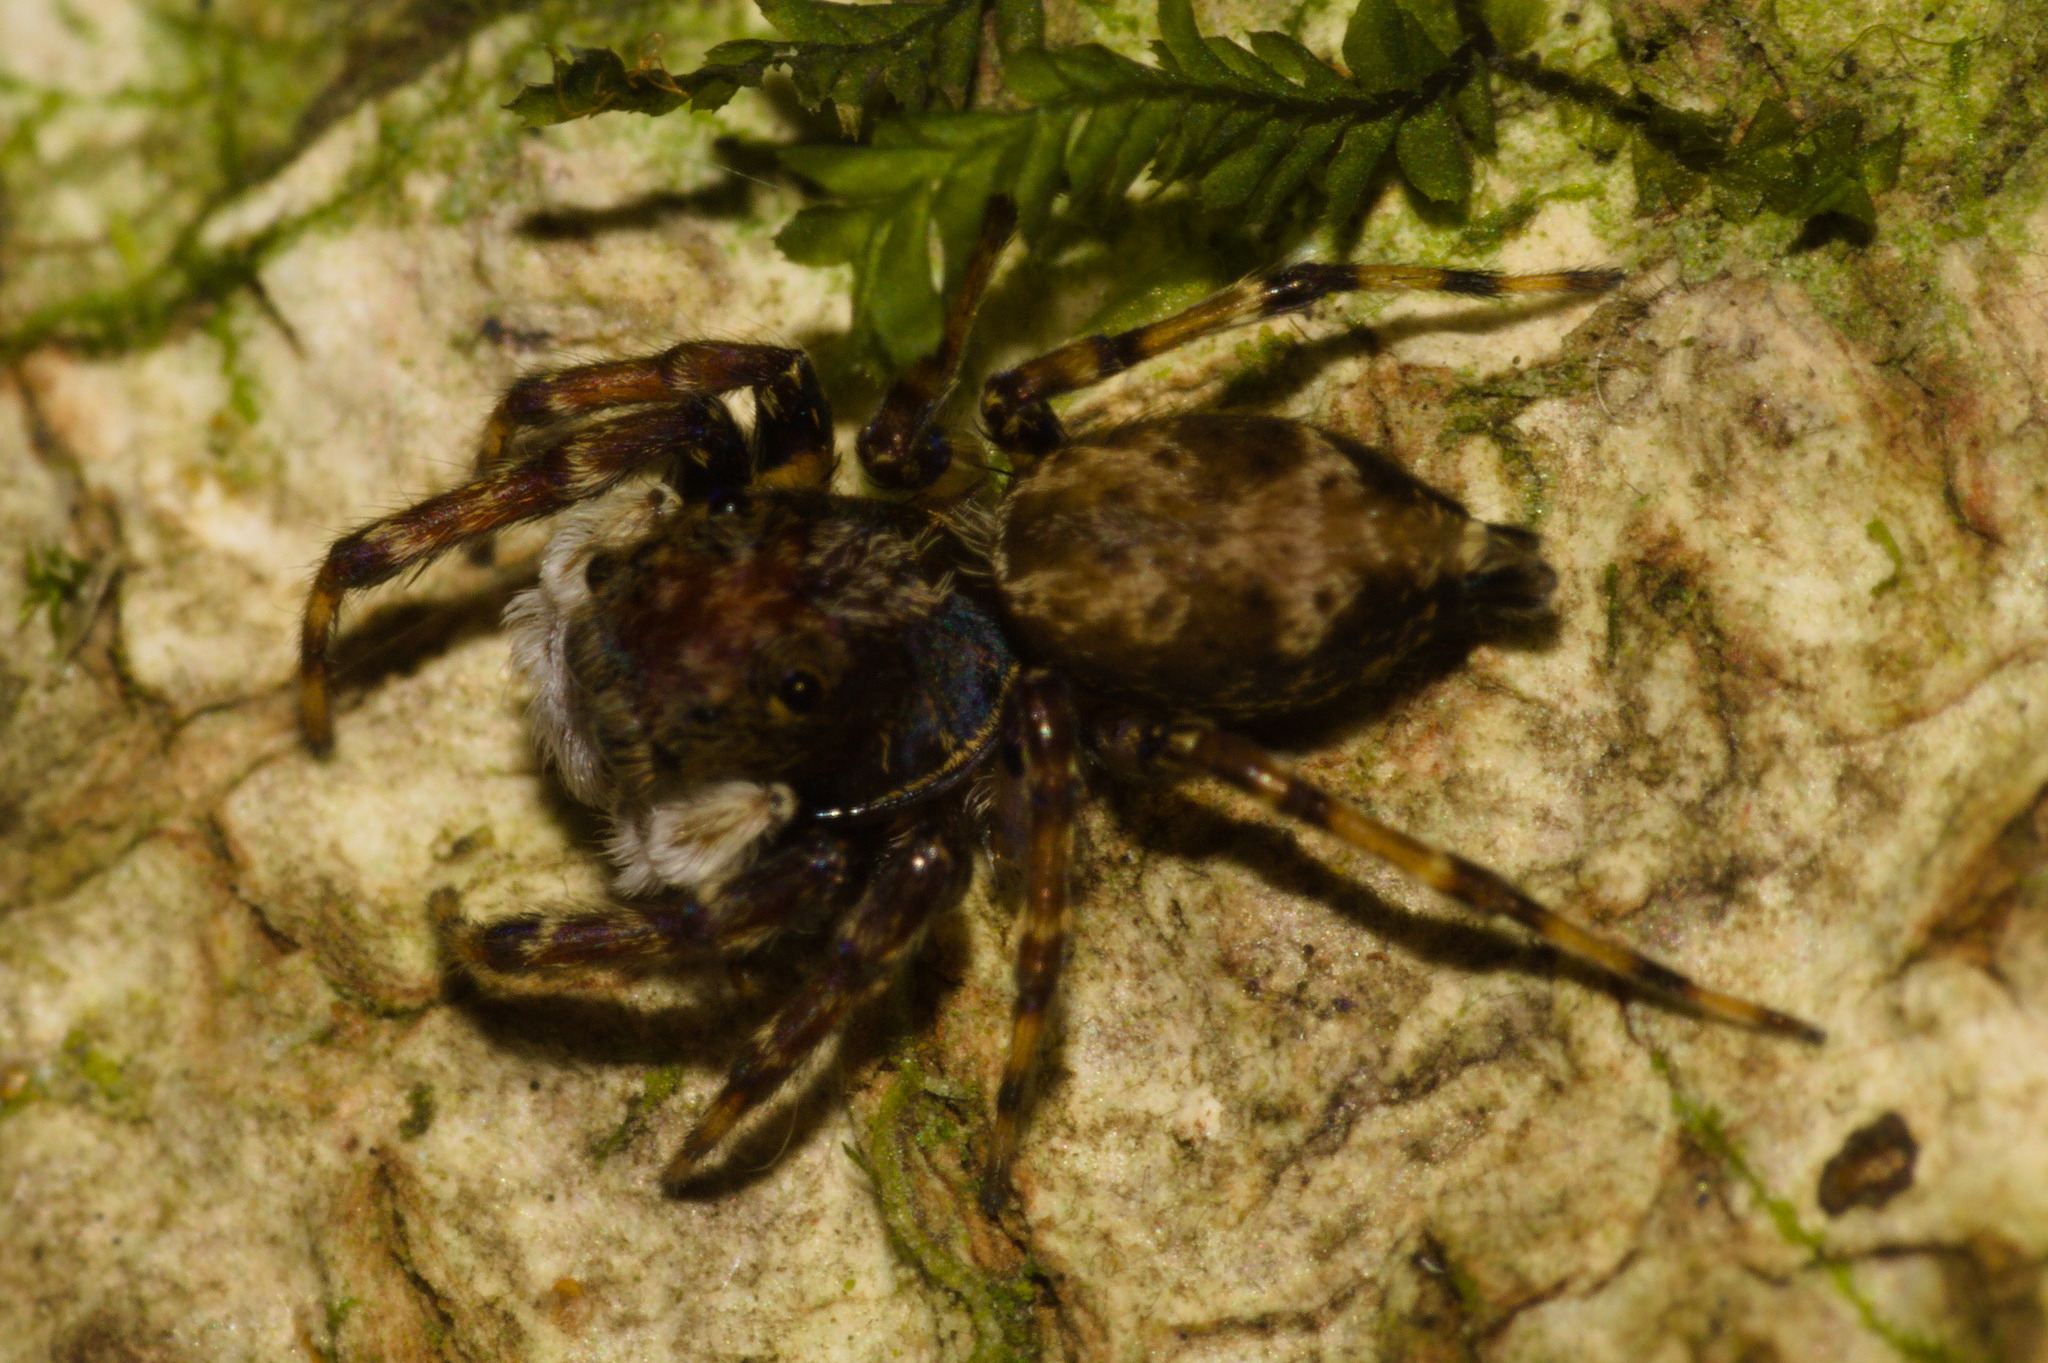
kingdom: Animalia
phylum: Arthropoda
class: Arachnida
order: Araneae
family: Salticidae
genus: Encolpius
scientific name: Encolpius guaraniticus
